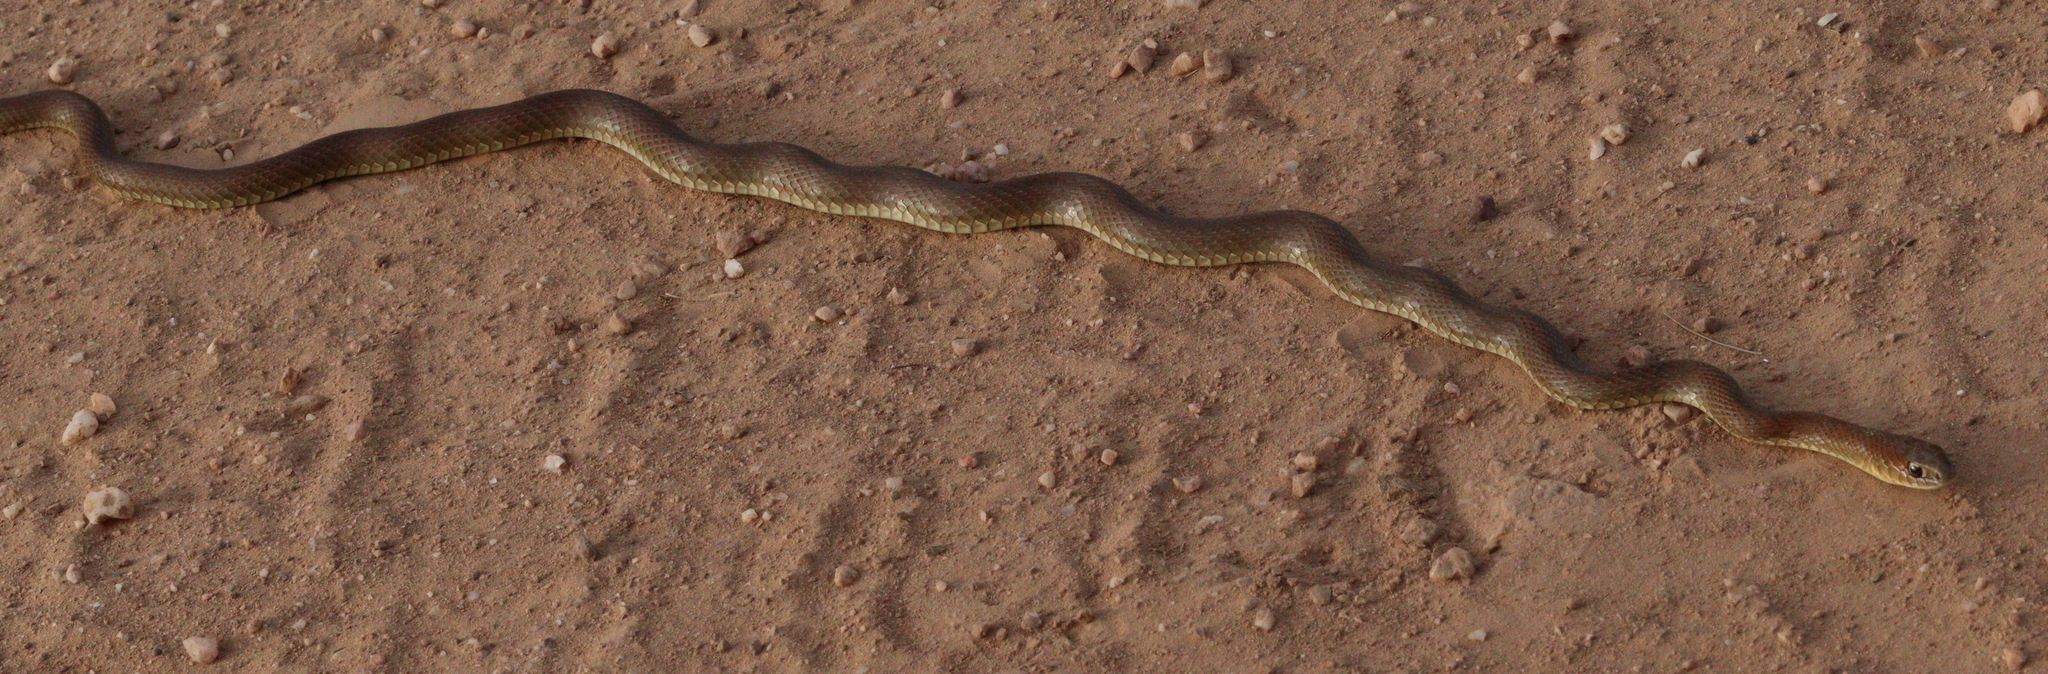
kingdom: Animalia
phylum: Chordata
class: Squamata
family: Colubridae
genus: Philodryas
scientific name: Philodryas patagoniensis
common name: Patagonia green racer
